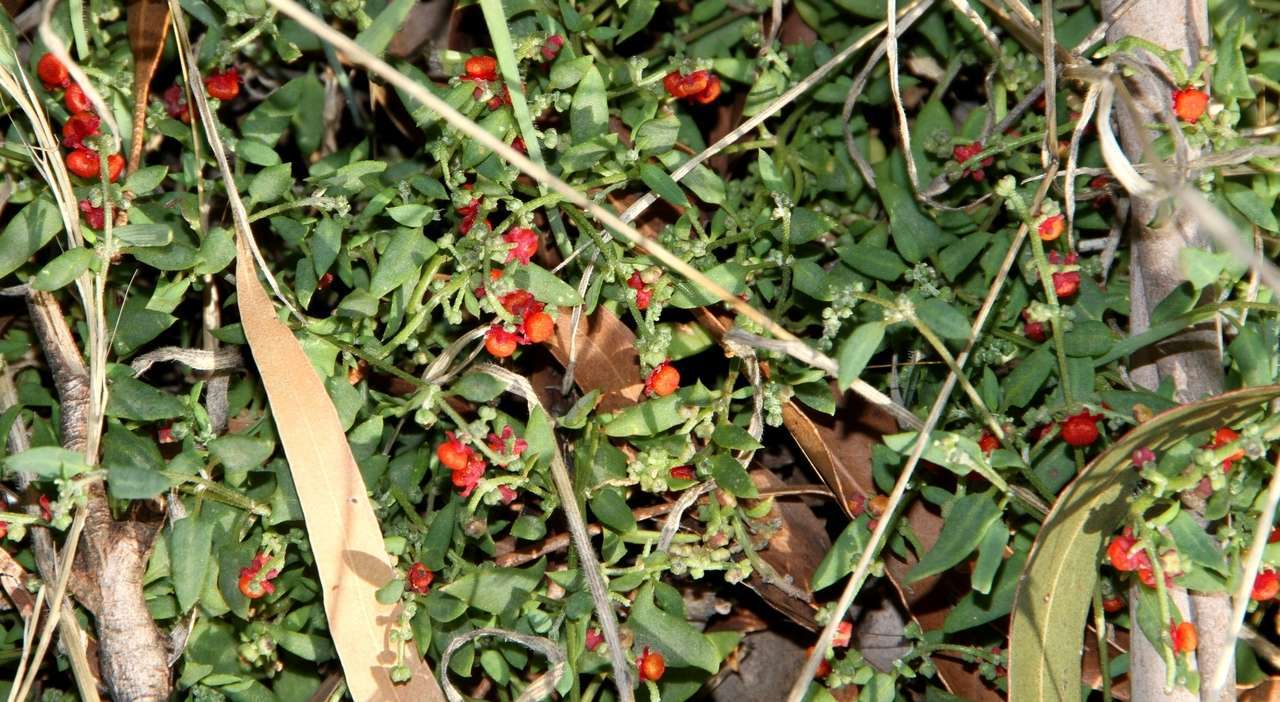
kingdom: Plantae
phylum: Tracheophyta
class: Magnoliopsida
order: Caryophyllales
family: Amaranthaceae
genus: Chenopodium
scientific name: Chenopodium nutans
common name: Climbing-saltbush
